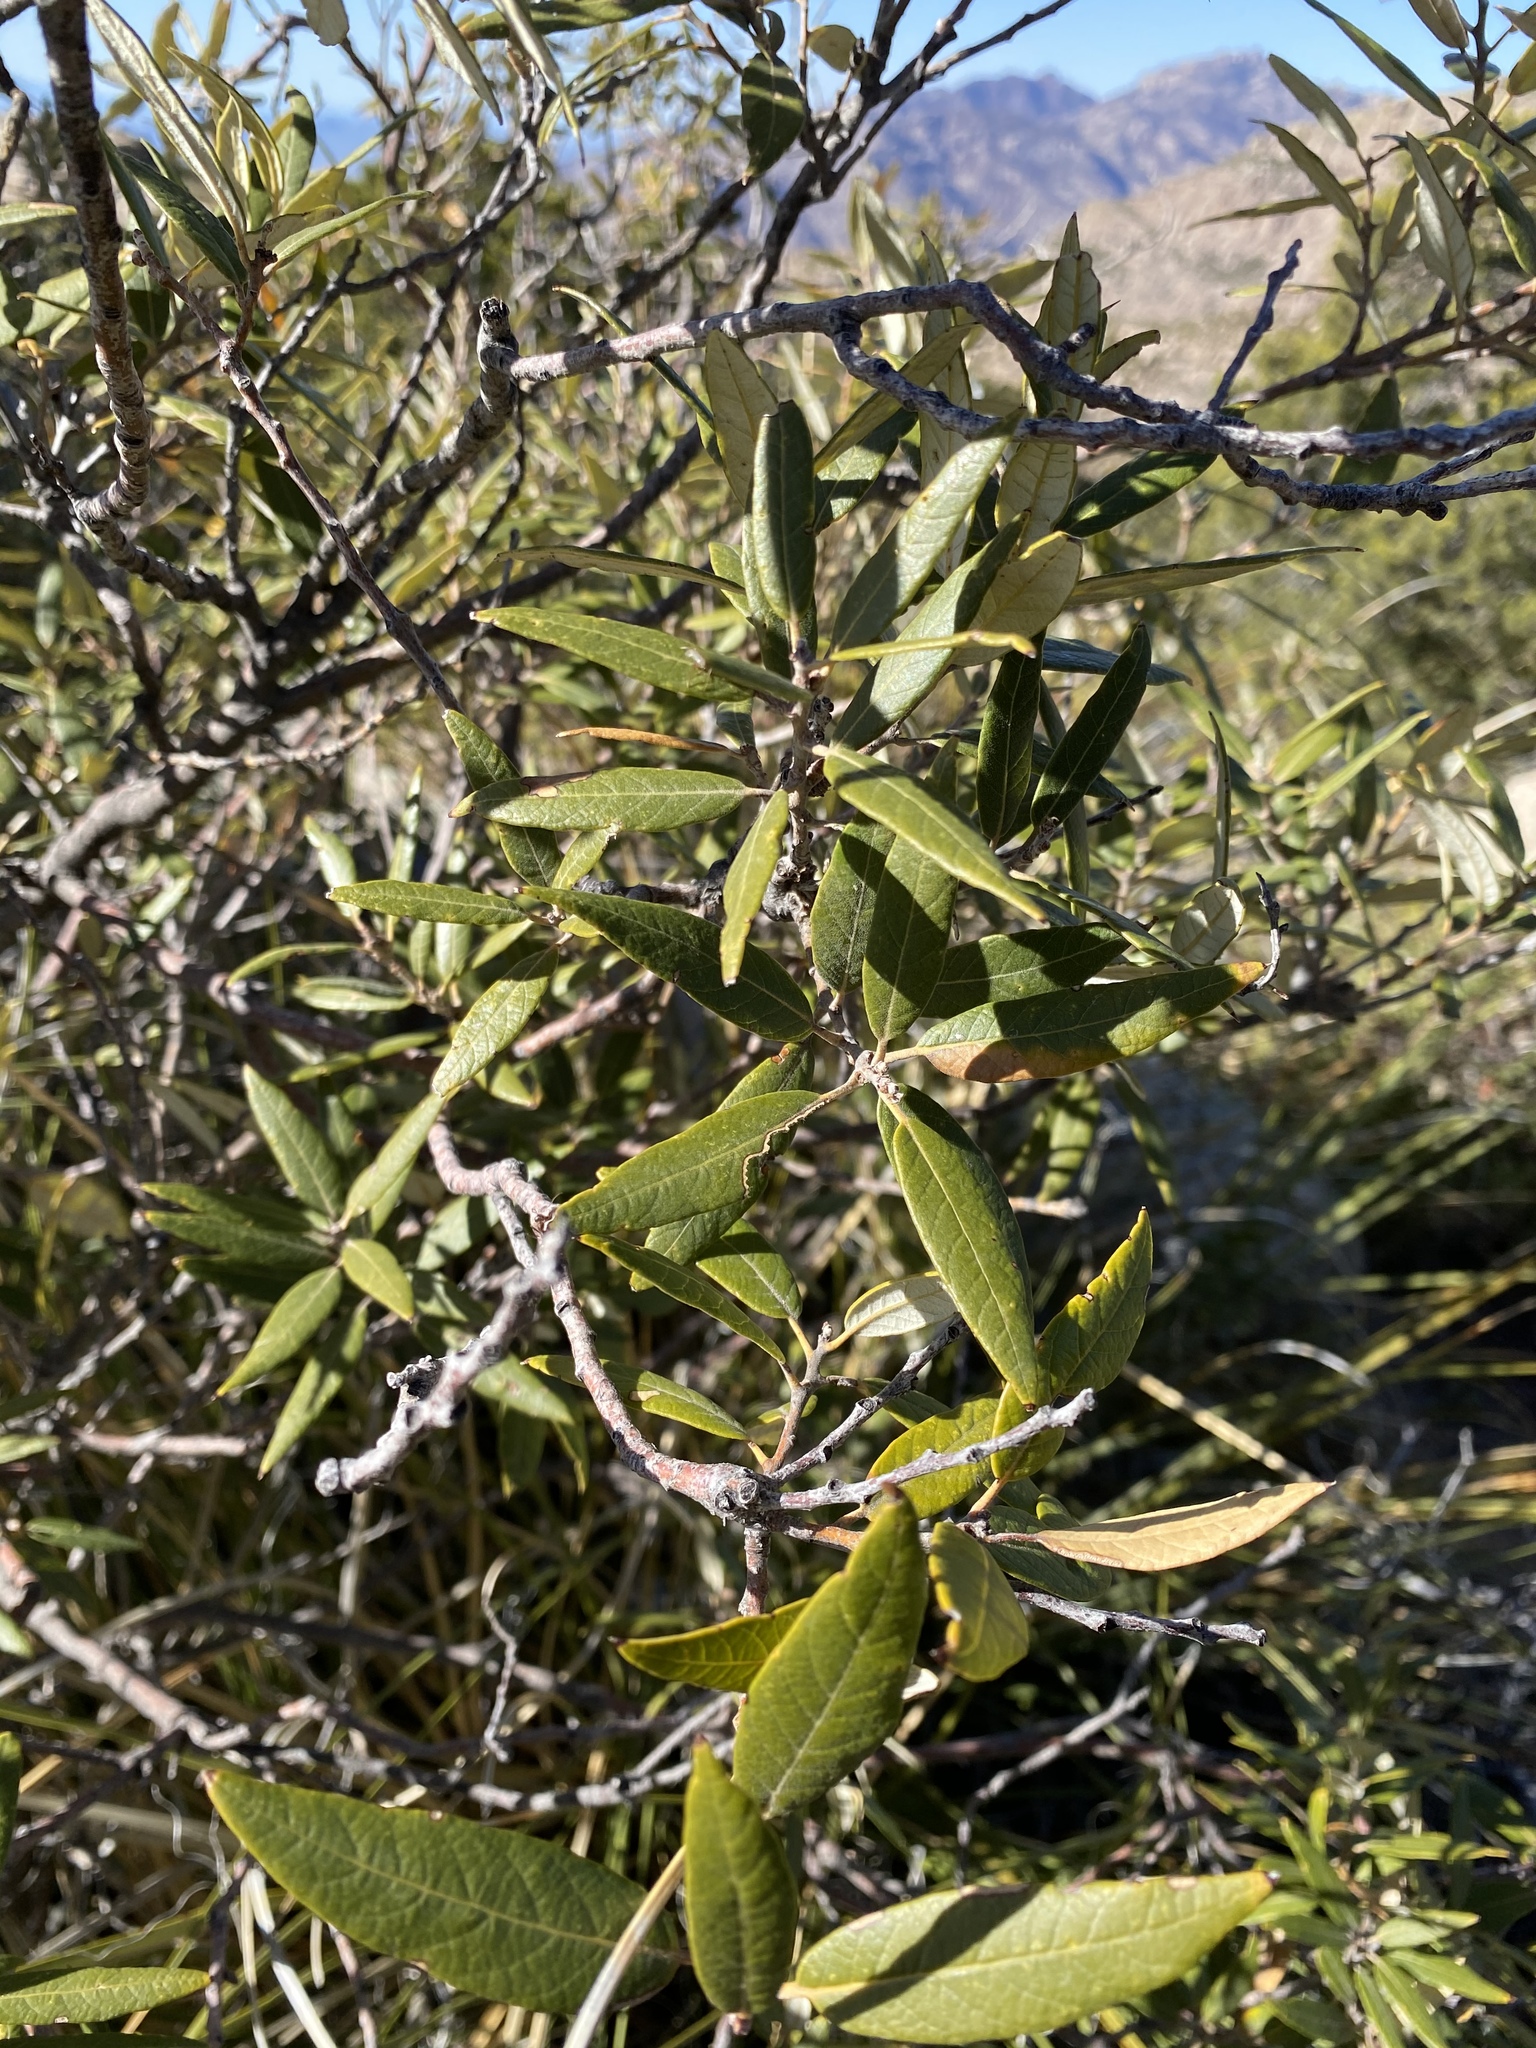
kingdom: Plantae
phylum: Tracheophyta
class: Magnoliopsida
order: Fagales
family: Fagaceae
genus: Quercus
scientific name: Quercus hypoleucoides
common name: Silverleaf oak
